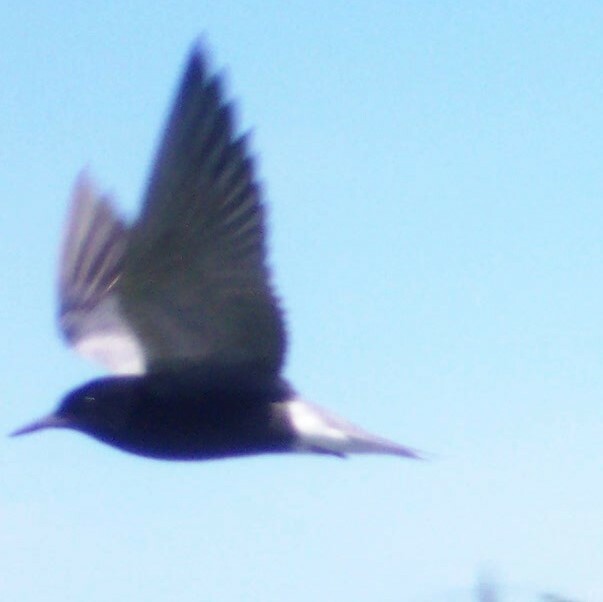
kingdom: Animalia
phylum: Chordata
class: Aves
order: Charadriiformes
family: Laridae
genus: Chlidonias
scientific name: Chlidonias niger
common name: Black tern
